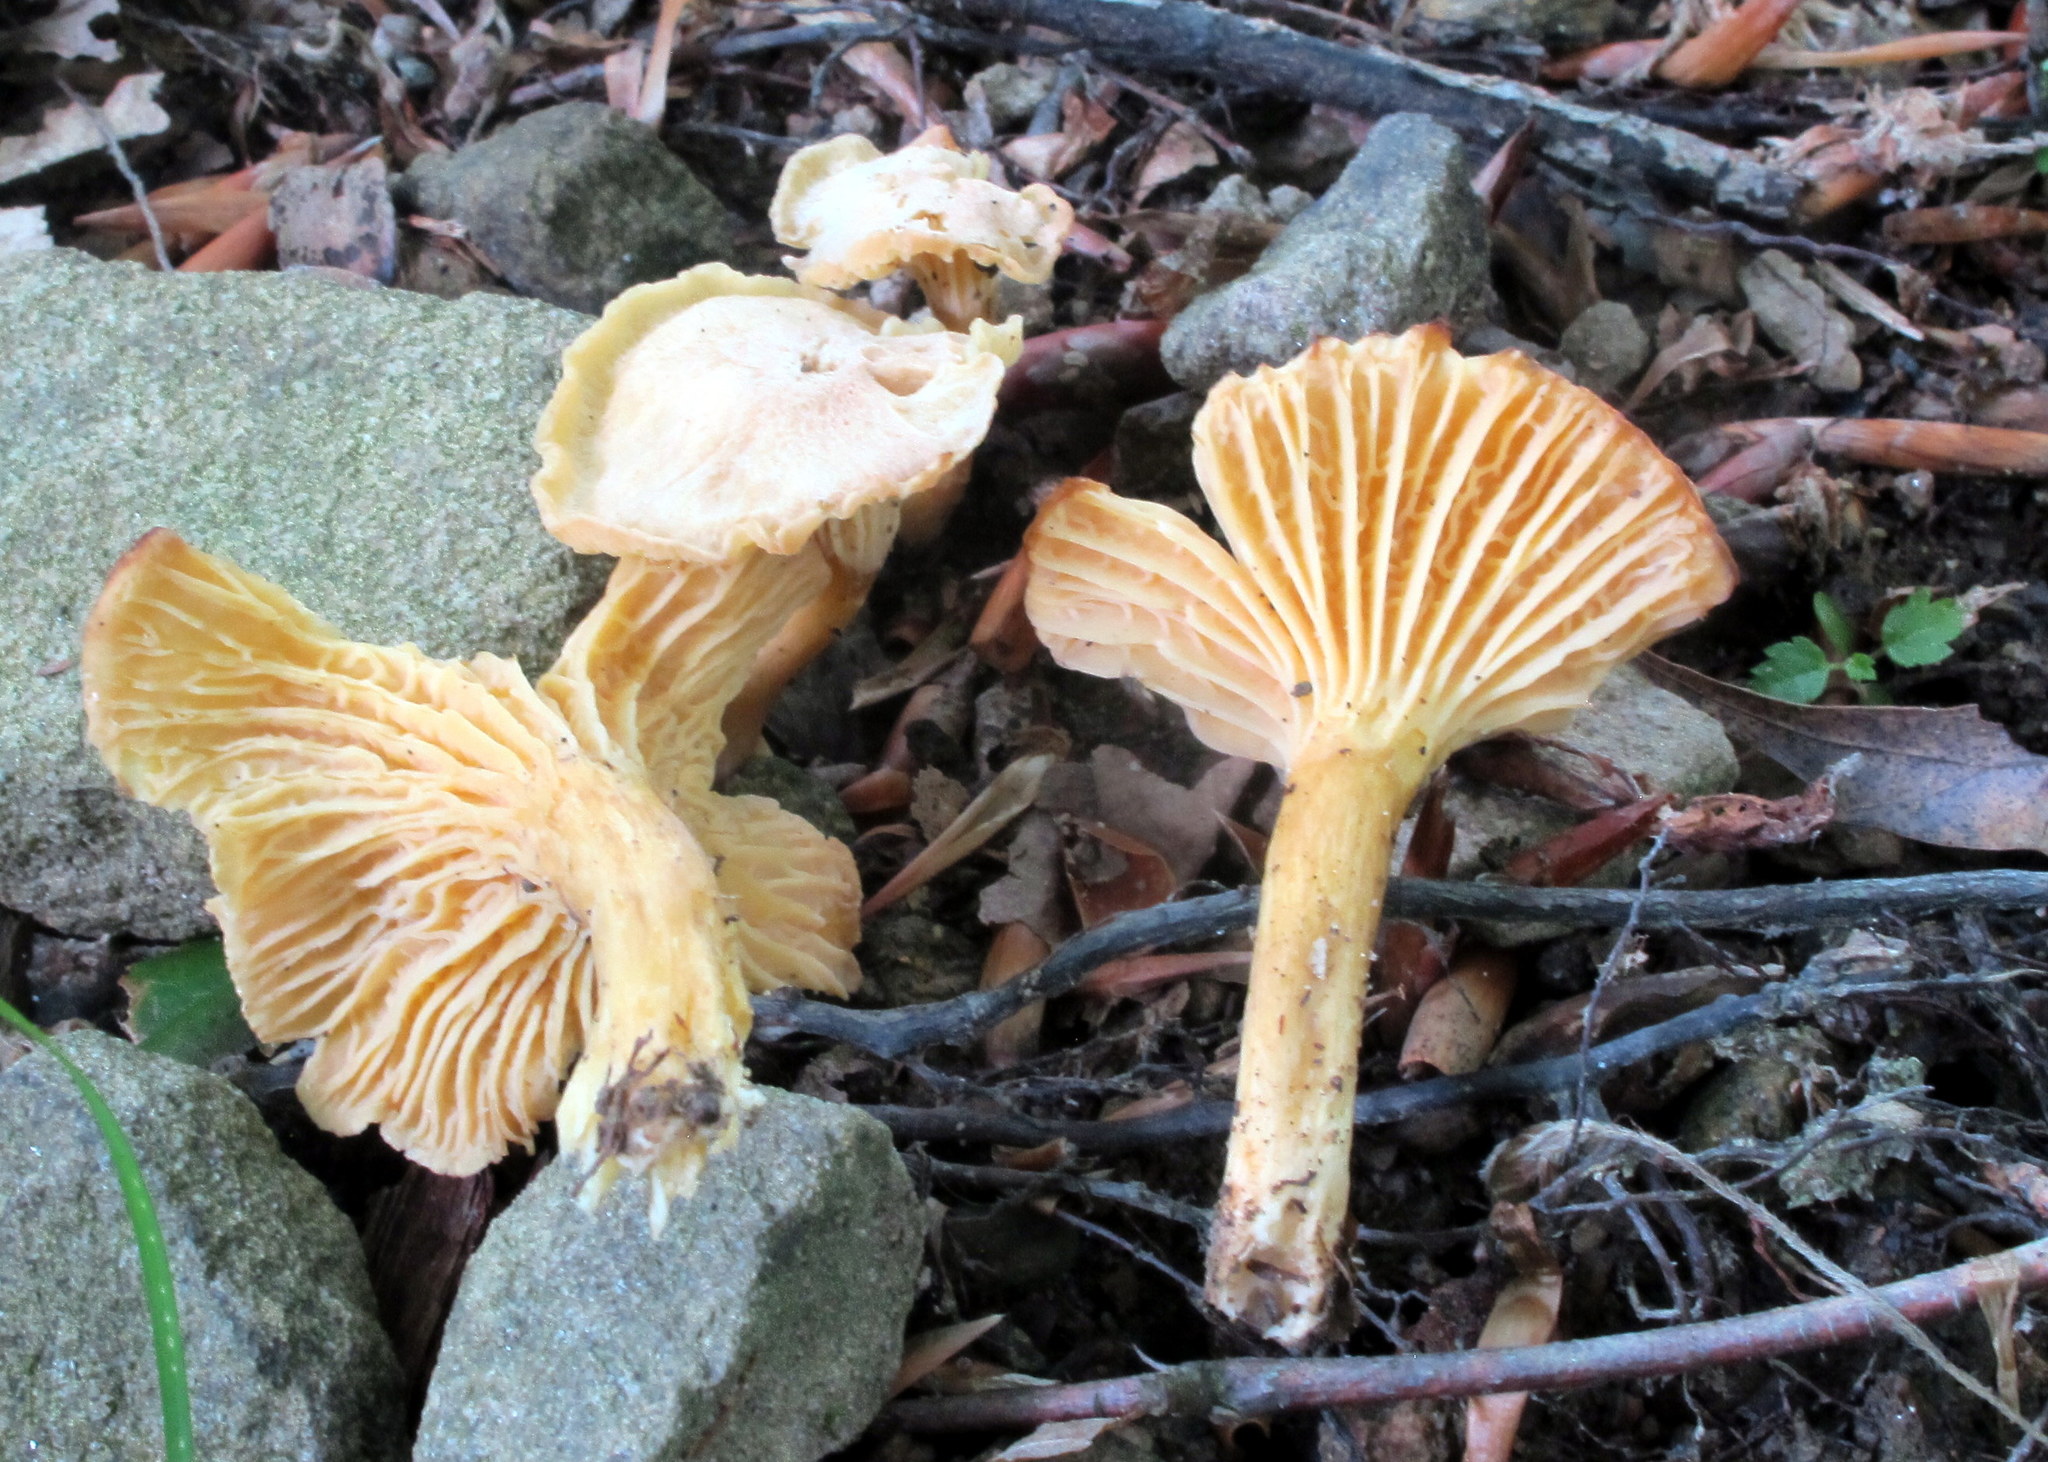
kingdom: Fungi
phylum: Basidiomycota
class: Agaricomycetes
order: Cantharellales
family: Hydnaceae
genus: Cantharellus
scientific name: Cantharellus appalachiensis
